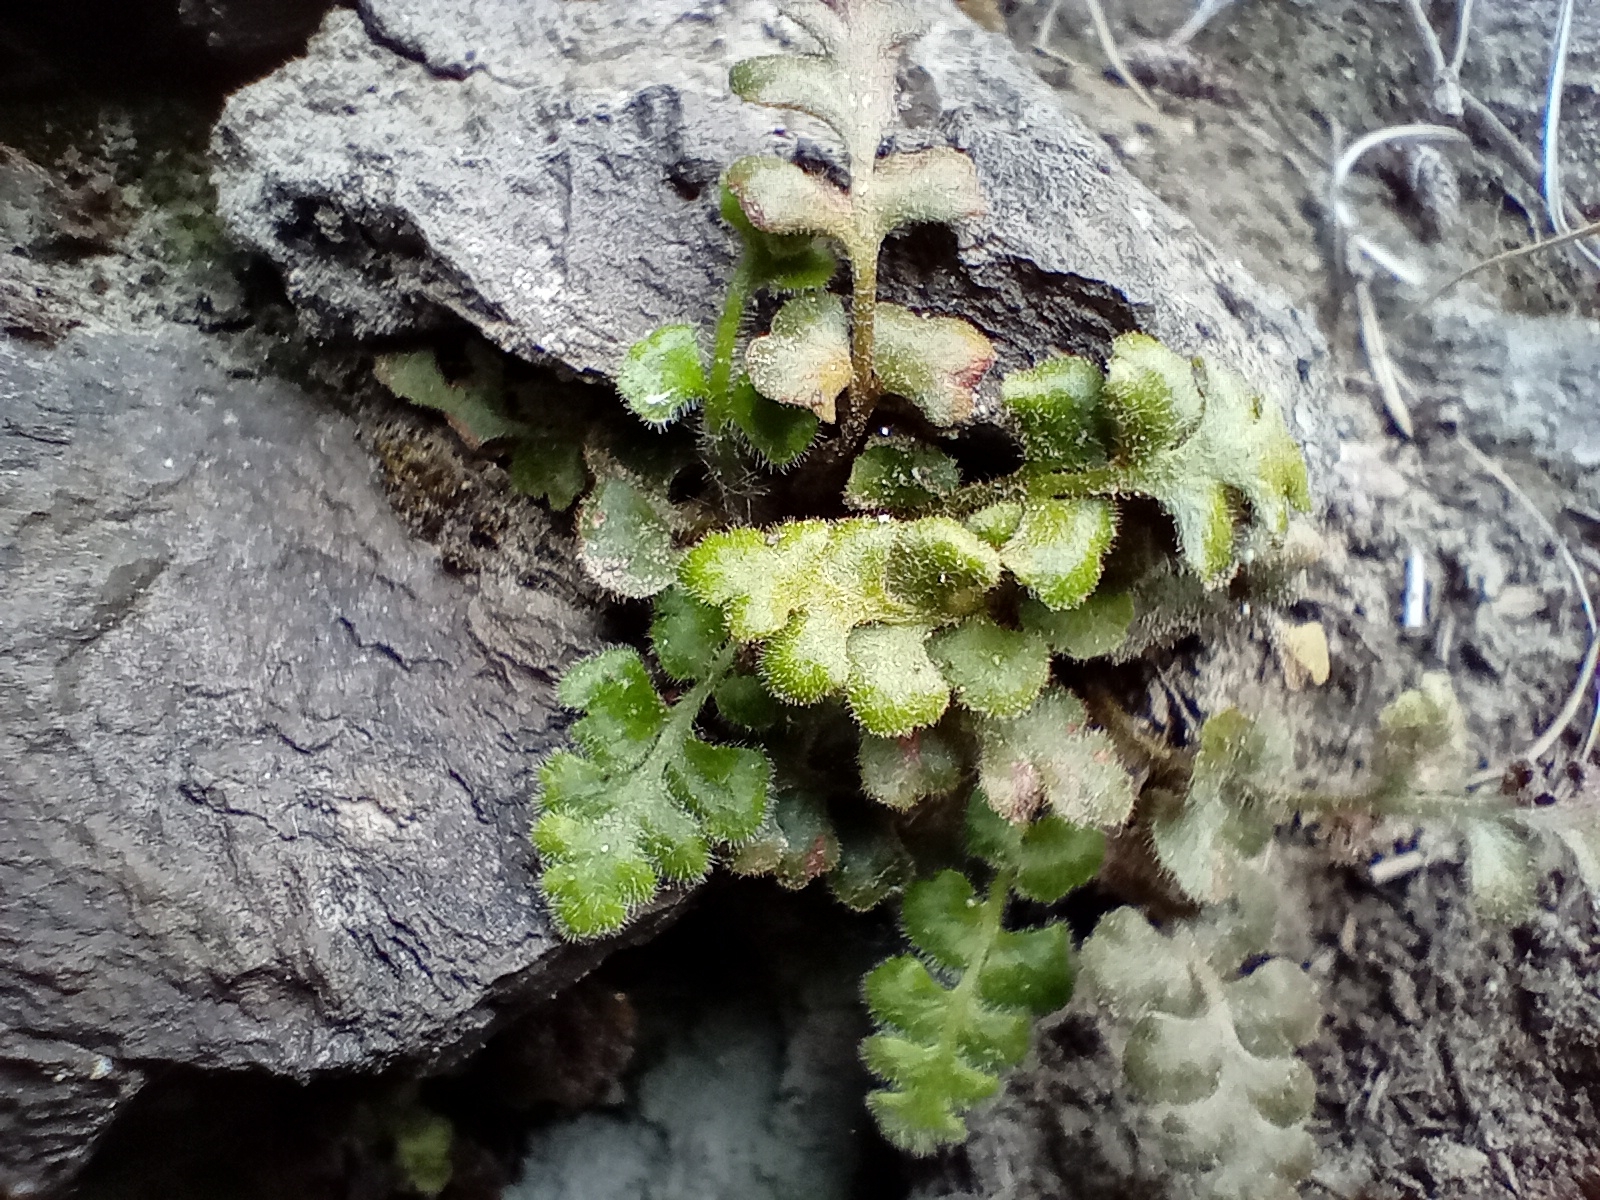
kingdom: Plantae
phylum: Tracheophyta
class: Polypodiopsida
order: Polypodiales
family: Aspleniaceae
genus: Asplenium
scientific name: Asplenium subglandulosum
